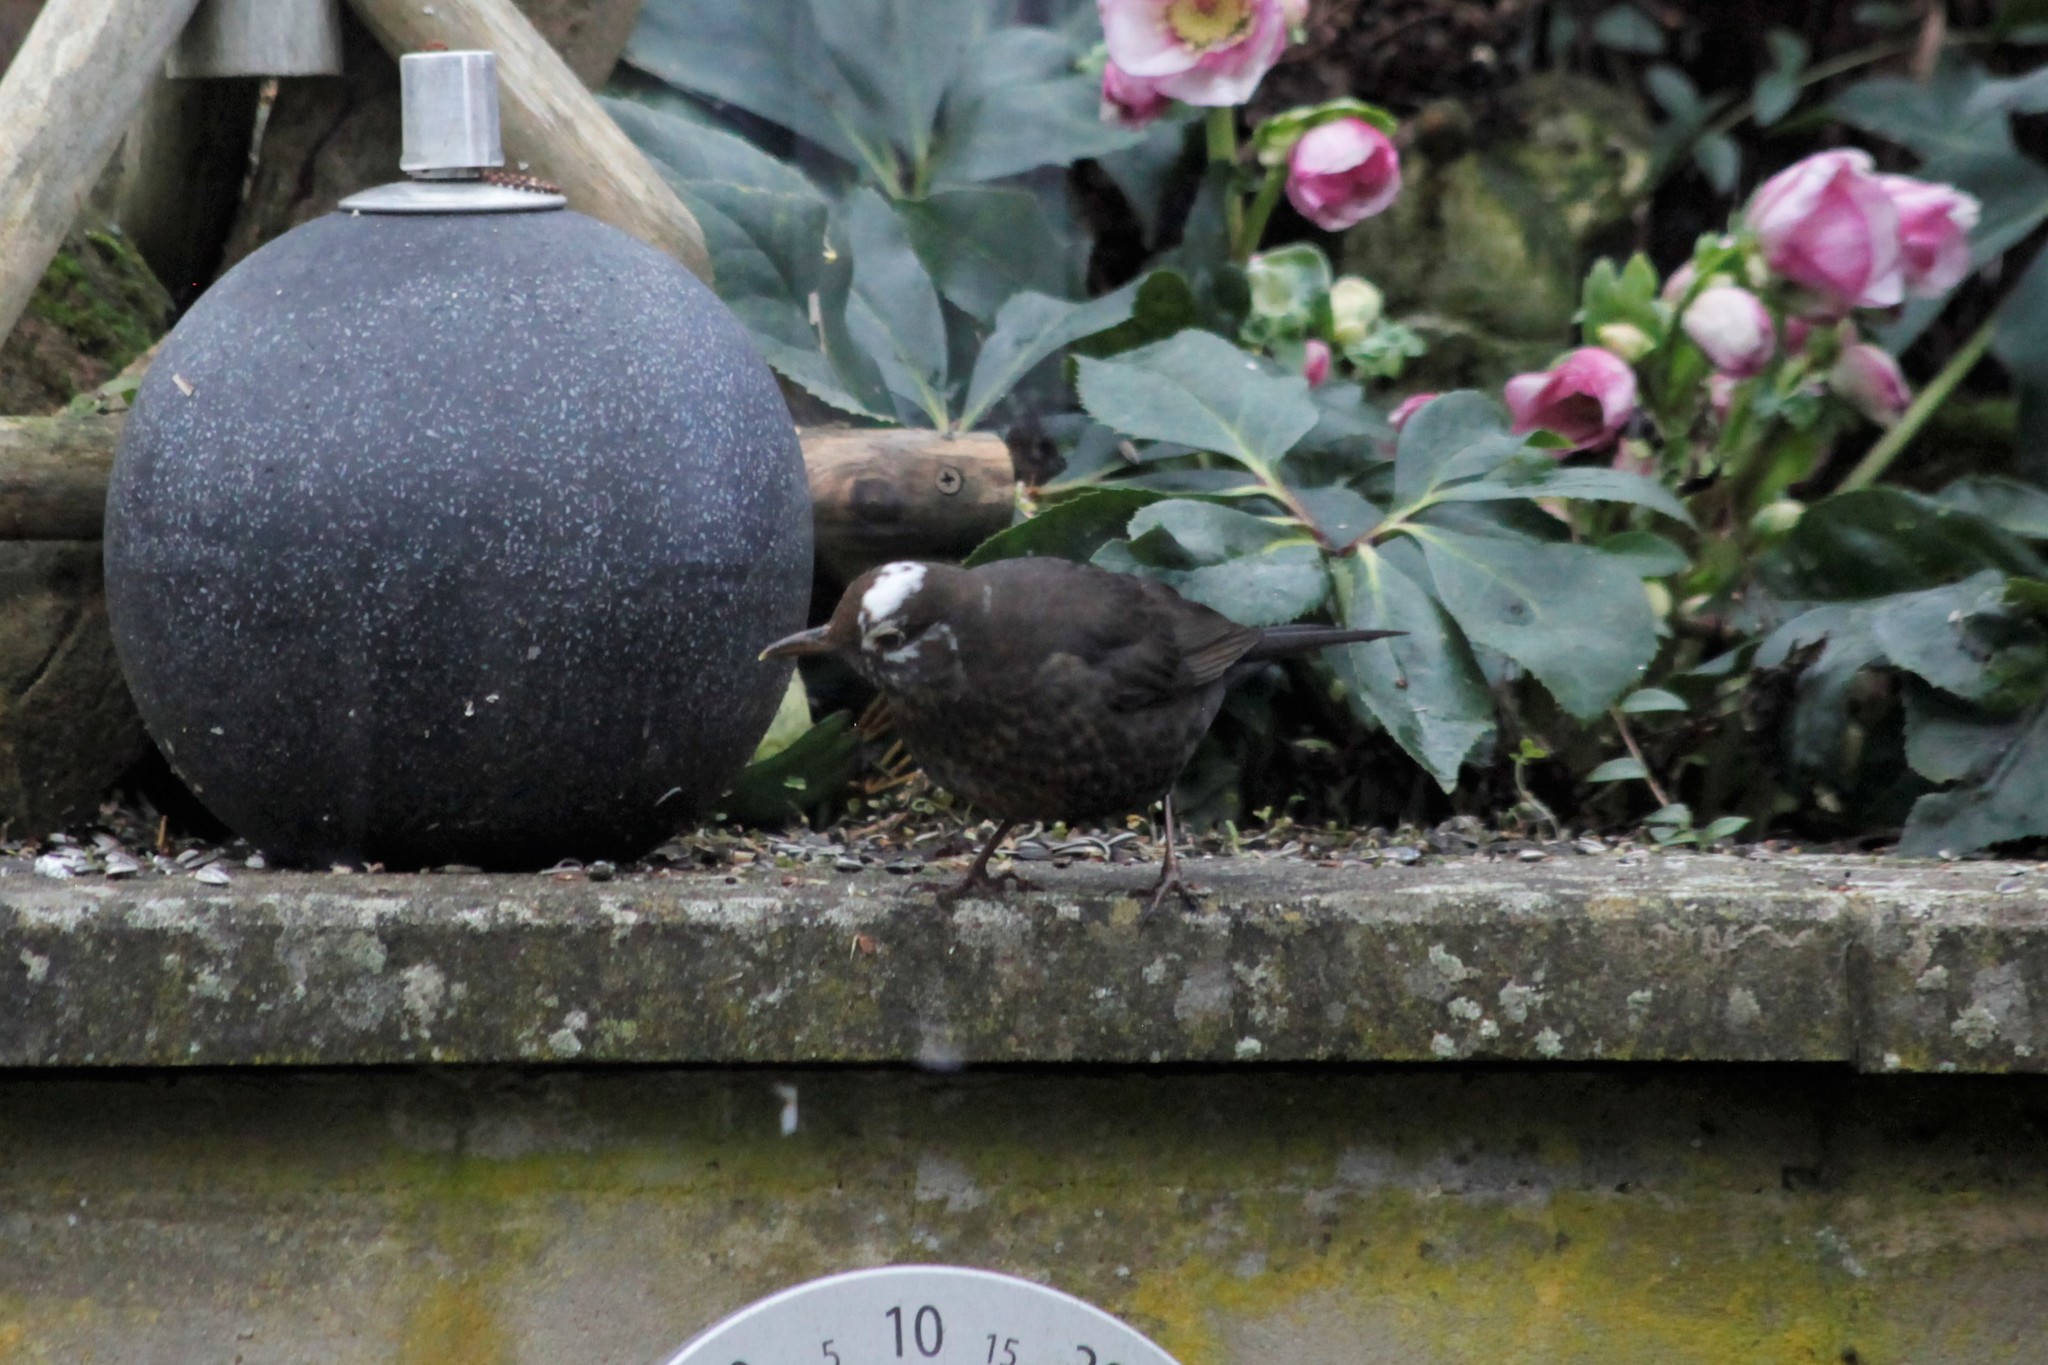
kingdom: Animalia
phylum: Chordata
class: Aves
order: Passeriformes
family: Turdidae
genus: Turdus
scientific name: Turdus merula
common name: Common blackbird
